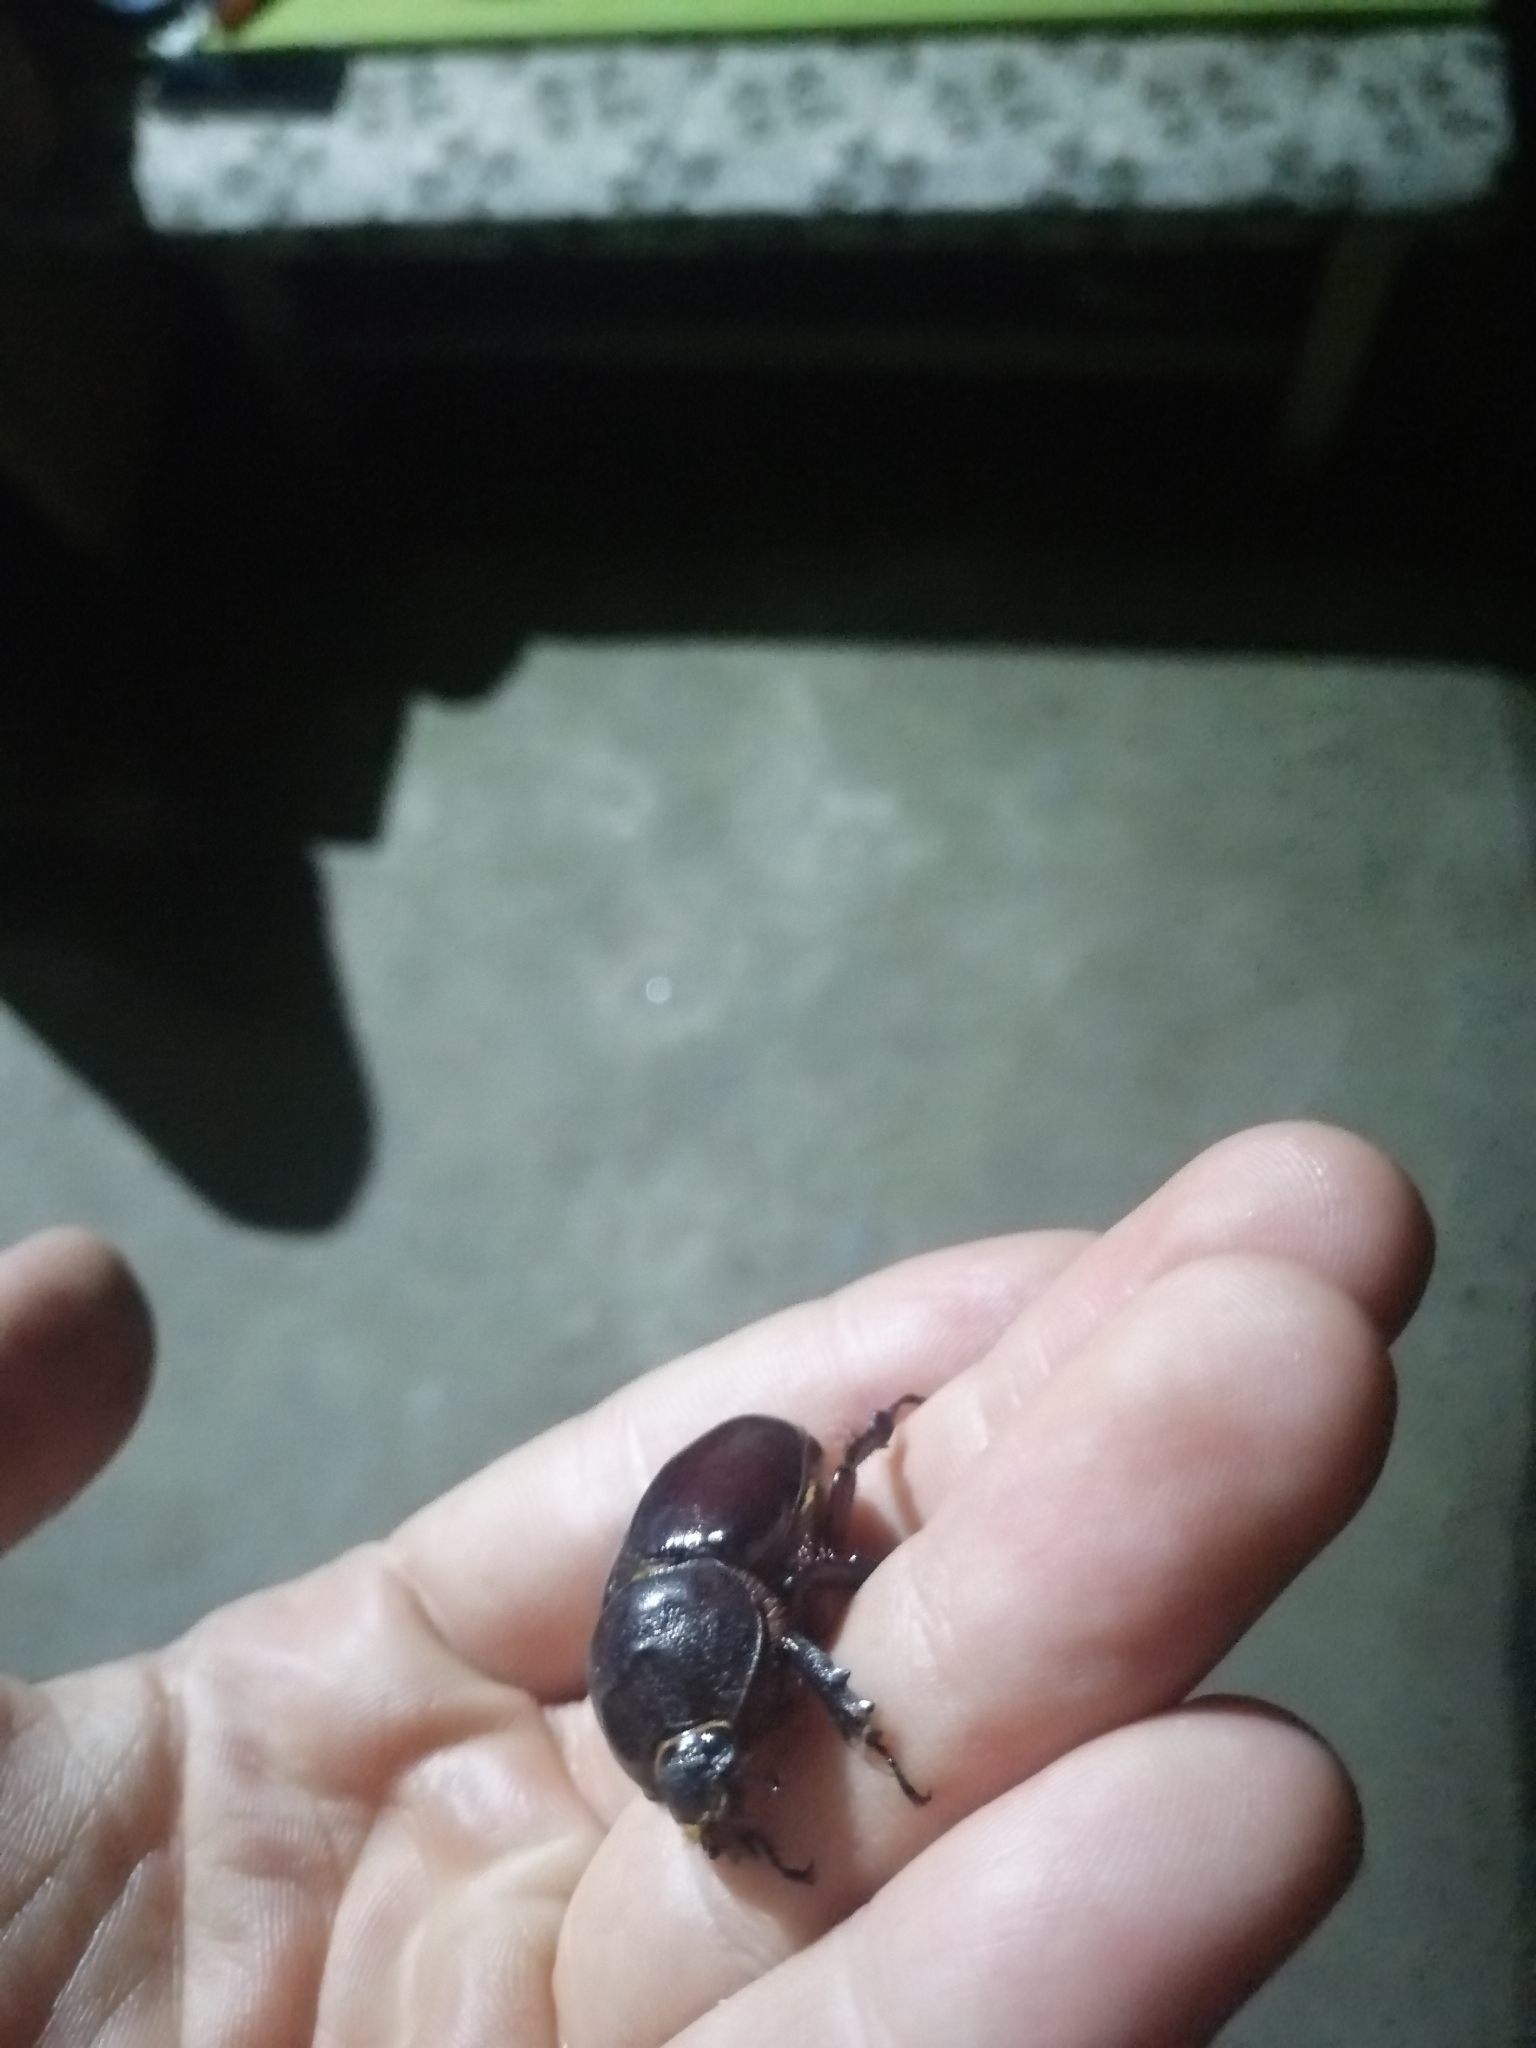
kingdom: Animalia
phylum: Arthropoda
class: Insecta
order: Coleoptera
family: Scarabaeidae
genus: Oryctes
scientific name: Oryctes nasicornis
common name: European rhinoceros beetle
